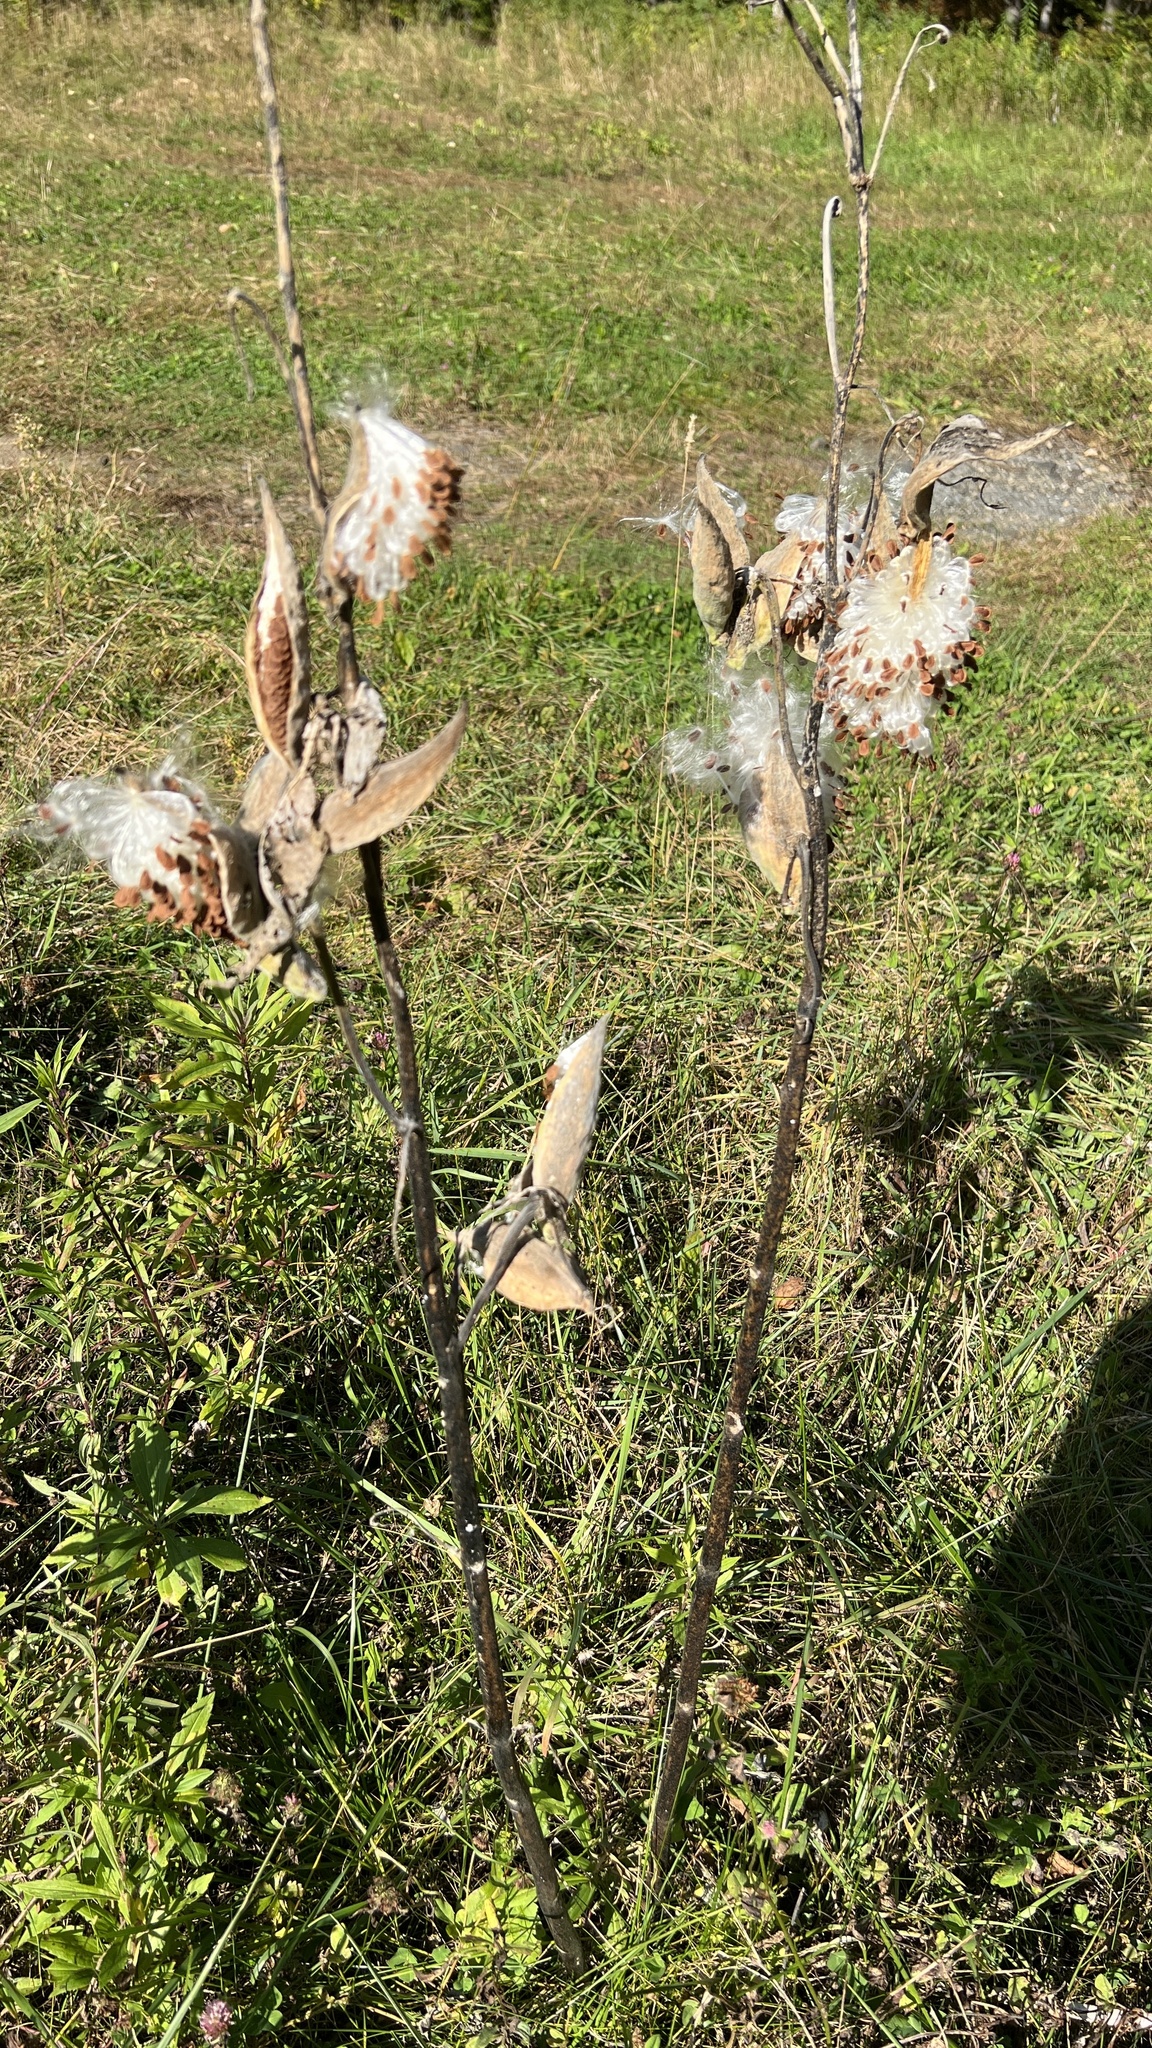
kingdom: Plantae
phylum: Tracheophyta
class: Magnoliopsida
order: Gentianales
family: Apocynaceae
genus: Asclepias
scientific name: Asclepias syriaca
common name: Common milkweed
